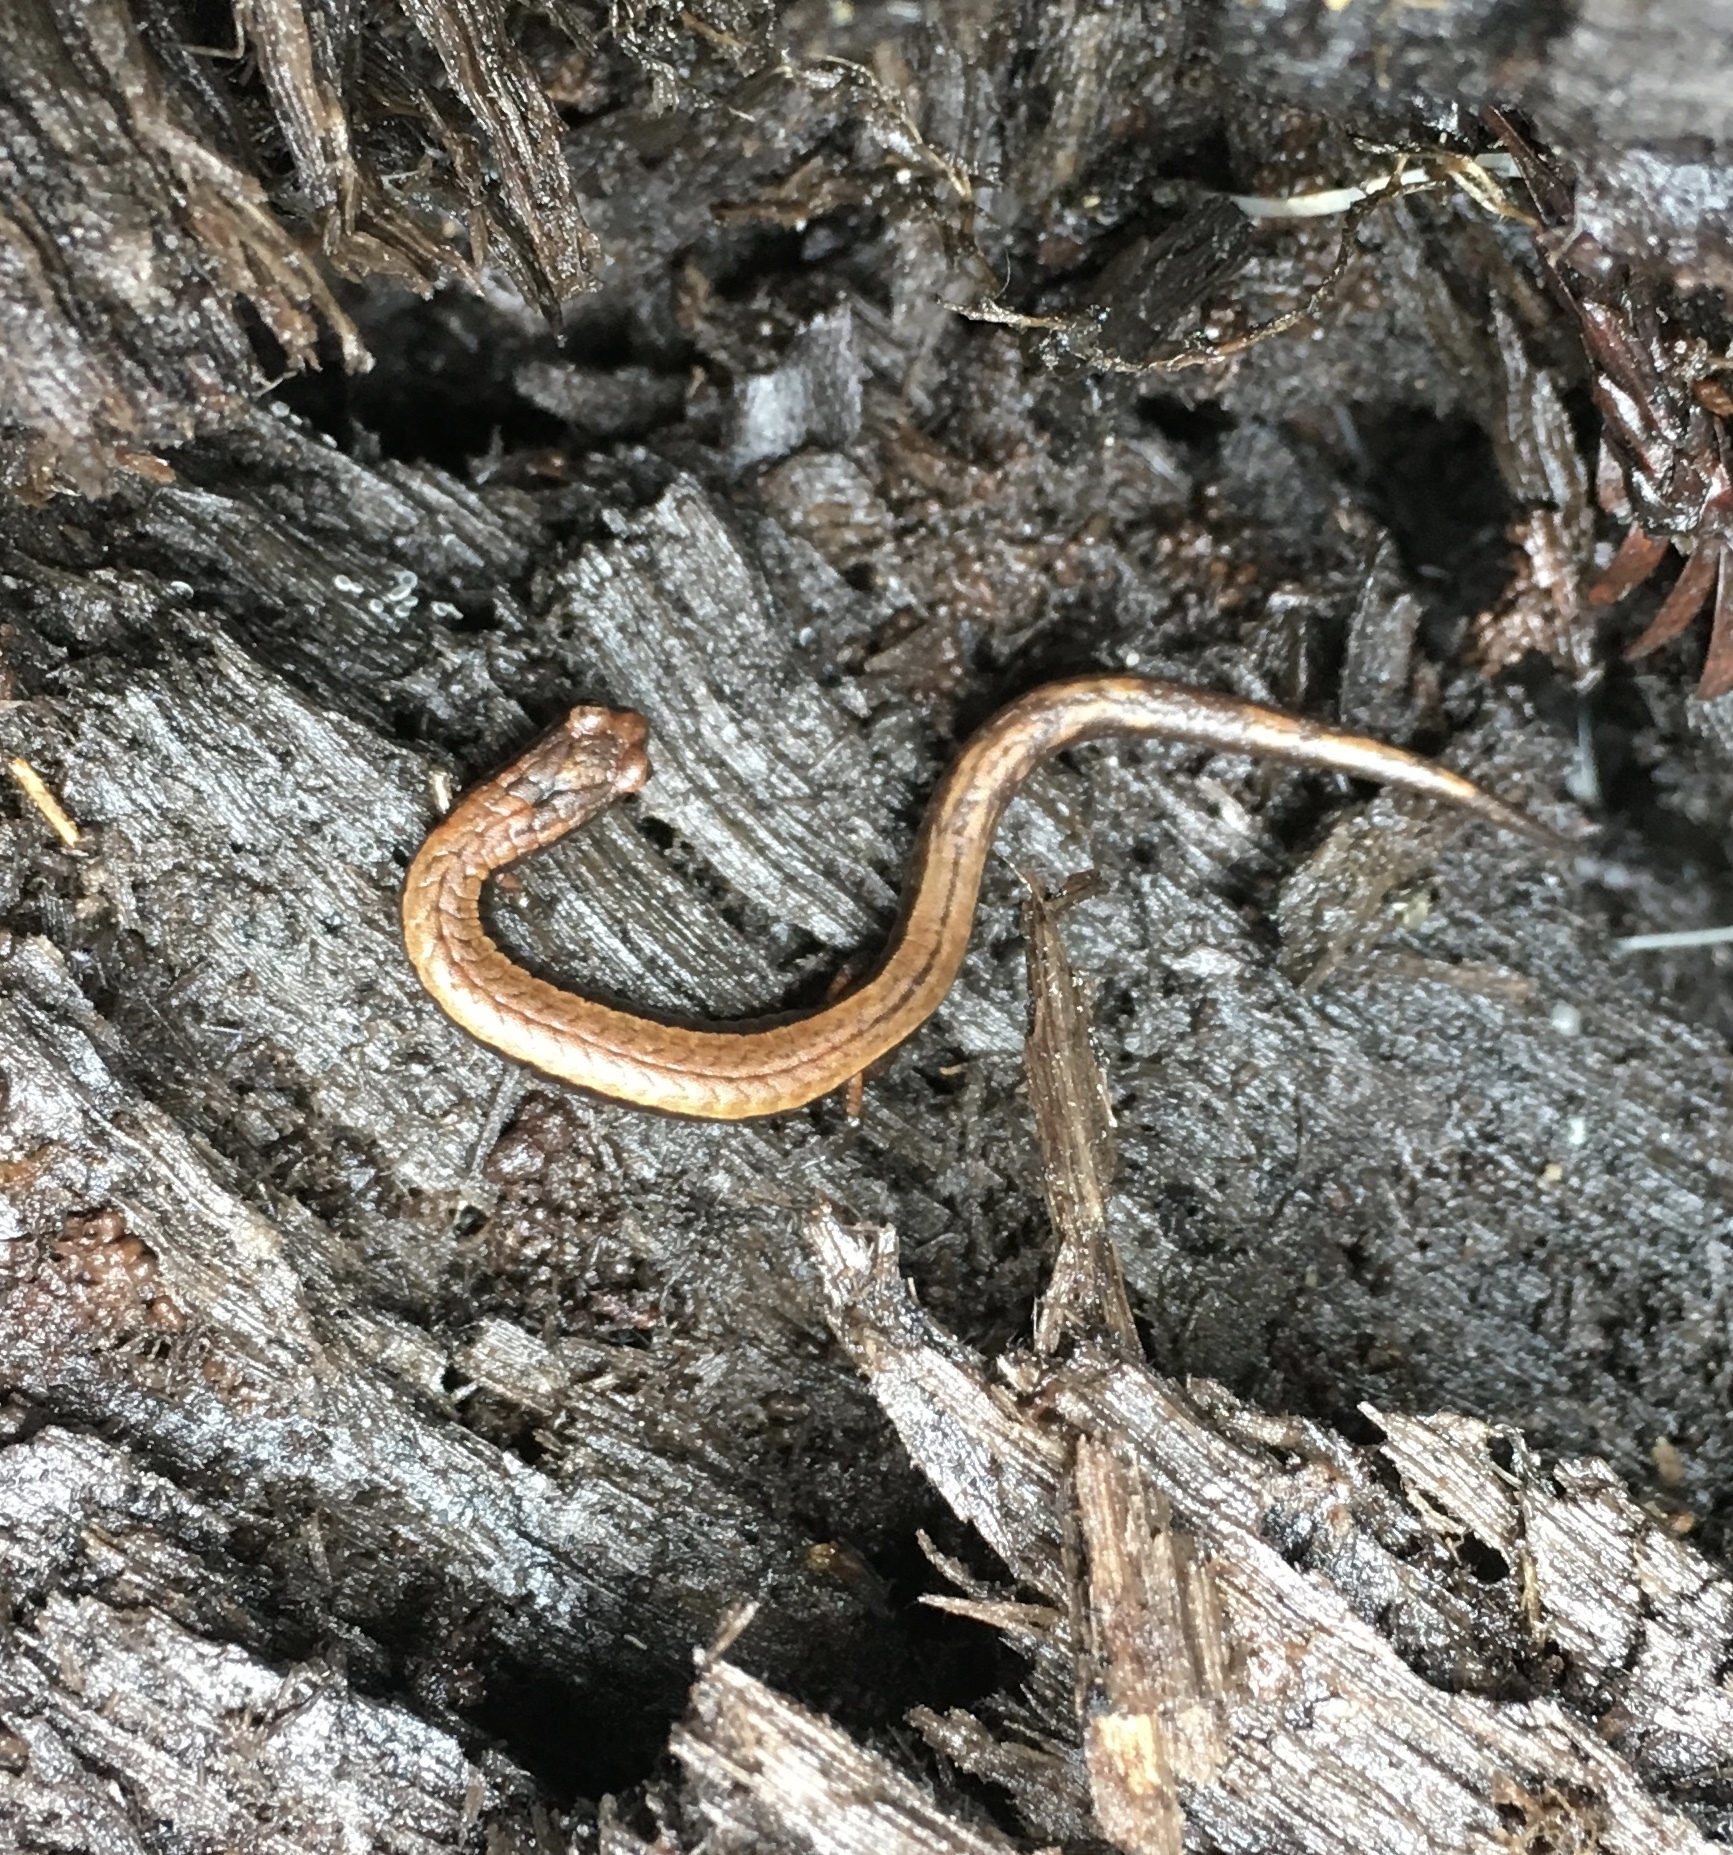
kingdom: Animalia
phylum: Chordata
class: Amphibia
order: Caudata
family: Plethodontidae
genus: Batrachoseps
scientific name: Batrachoseps attenuatus
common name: California slender salamander
